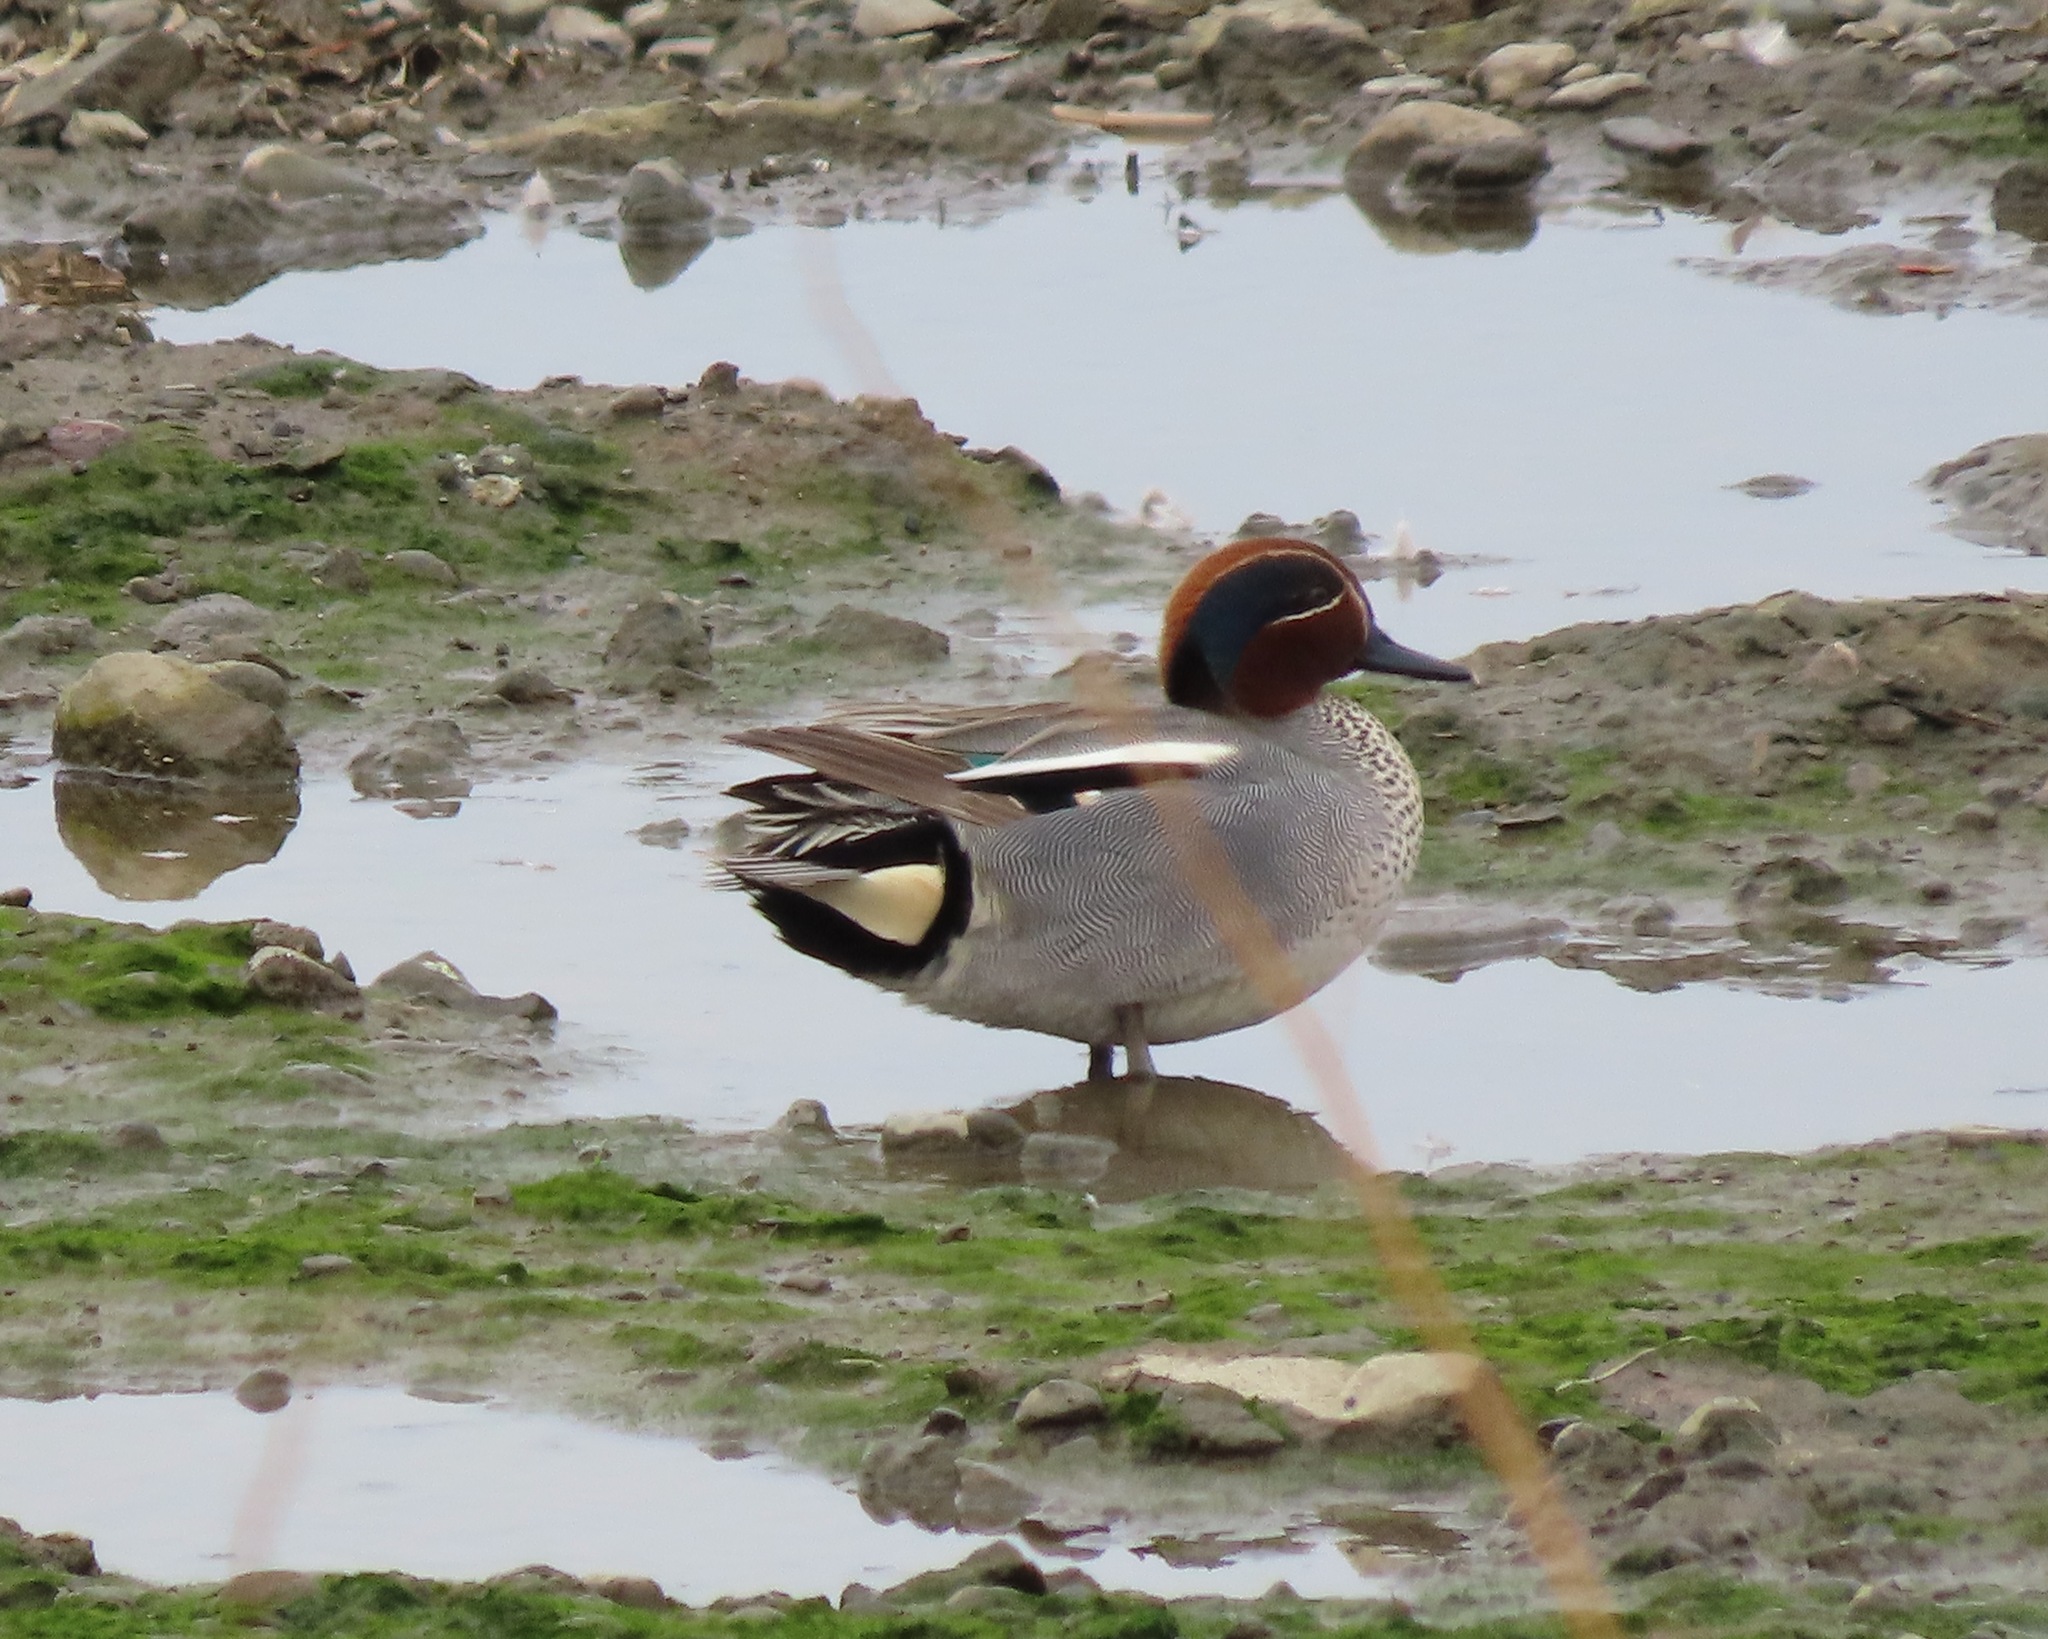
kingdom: Animalia
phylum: Chordata
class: Aves
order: Anseriformes
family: Anatidae
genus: Anas
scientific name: Anas crecca
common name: Eurasian teal
